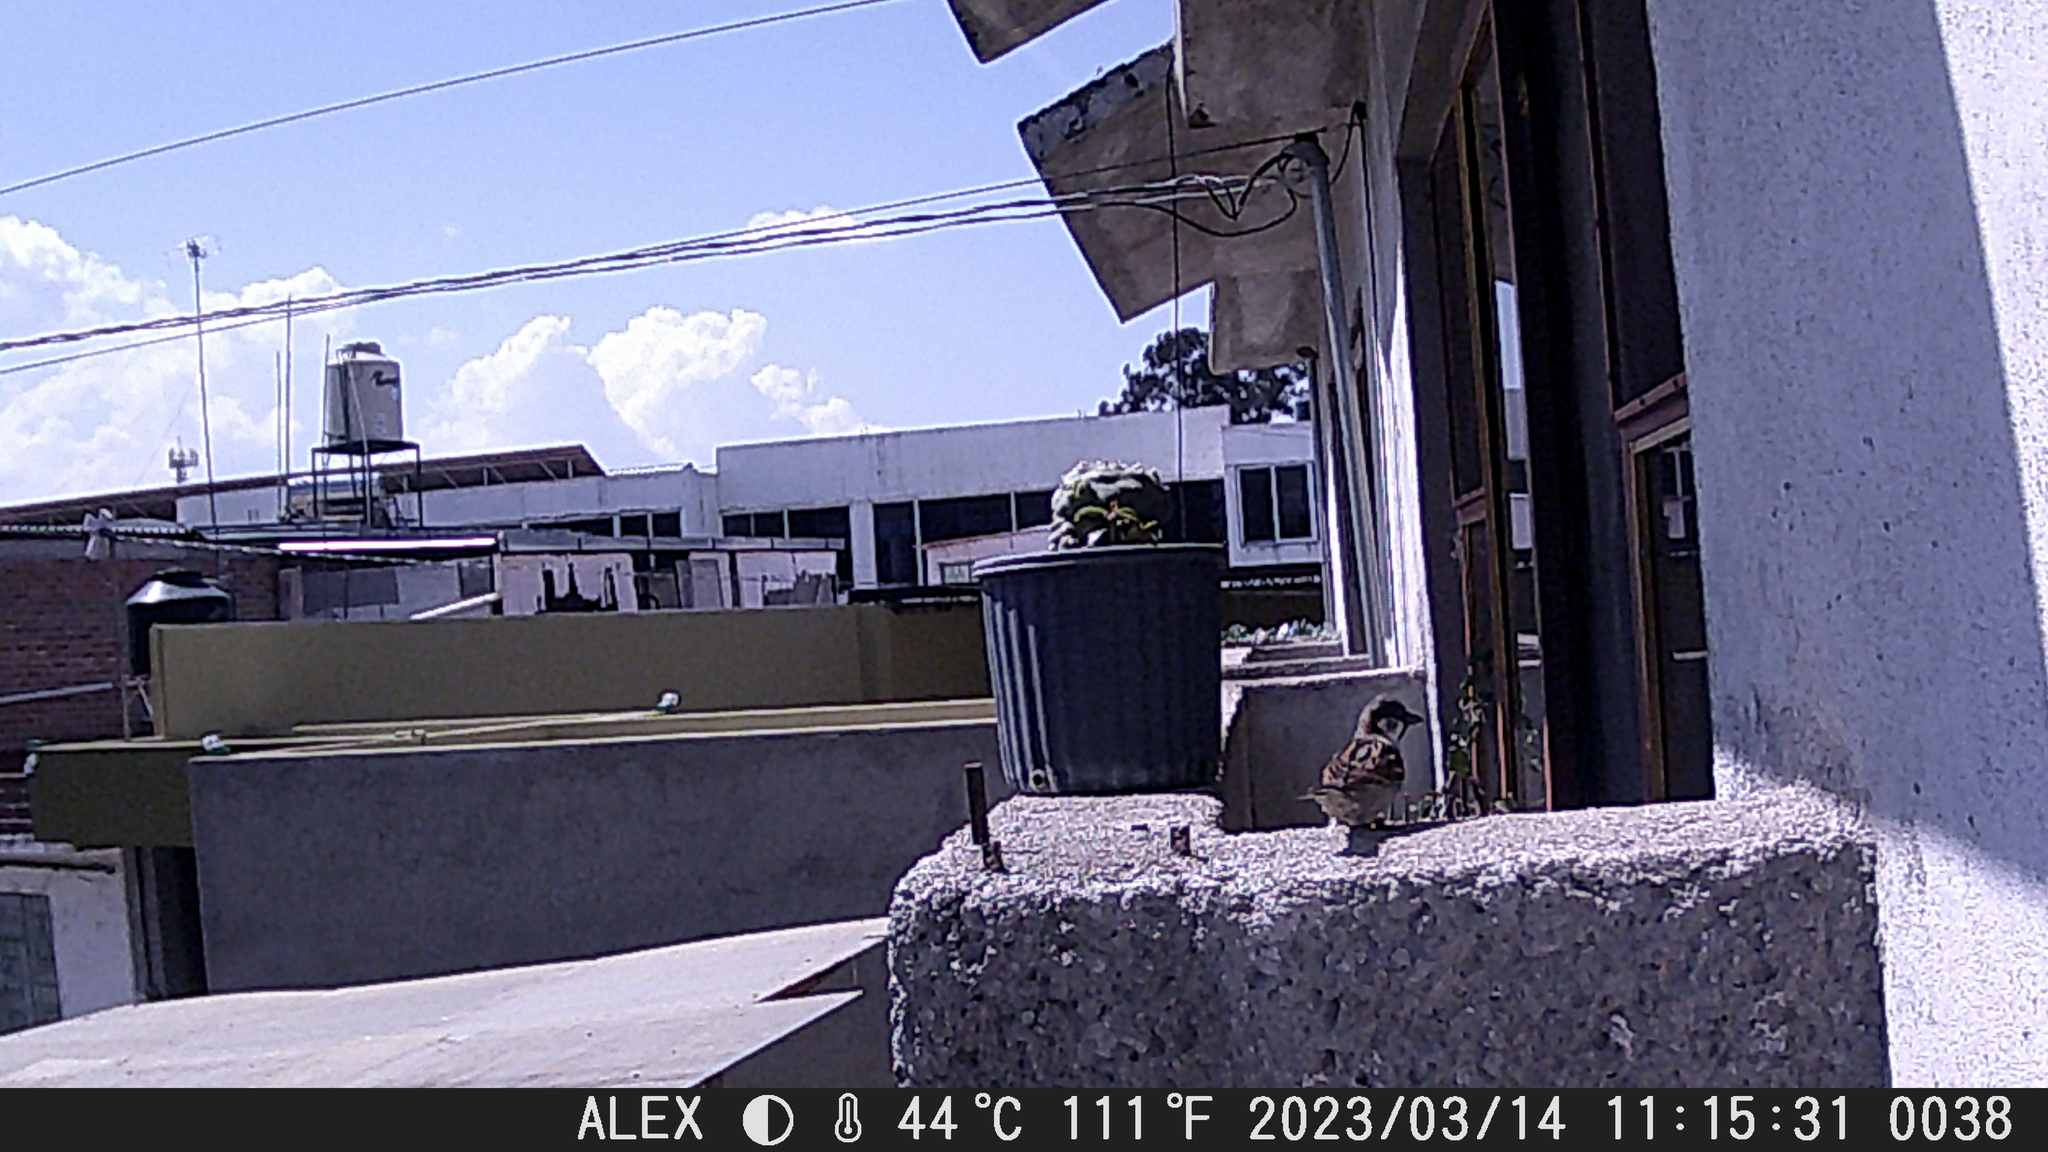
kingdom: Animalia
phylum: Chordata
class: Aves
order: Passeriformes
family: Passeridae
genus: Passer
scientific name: Passer domesticus
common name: House sparrow
